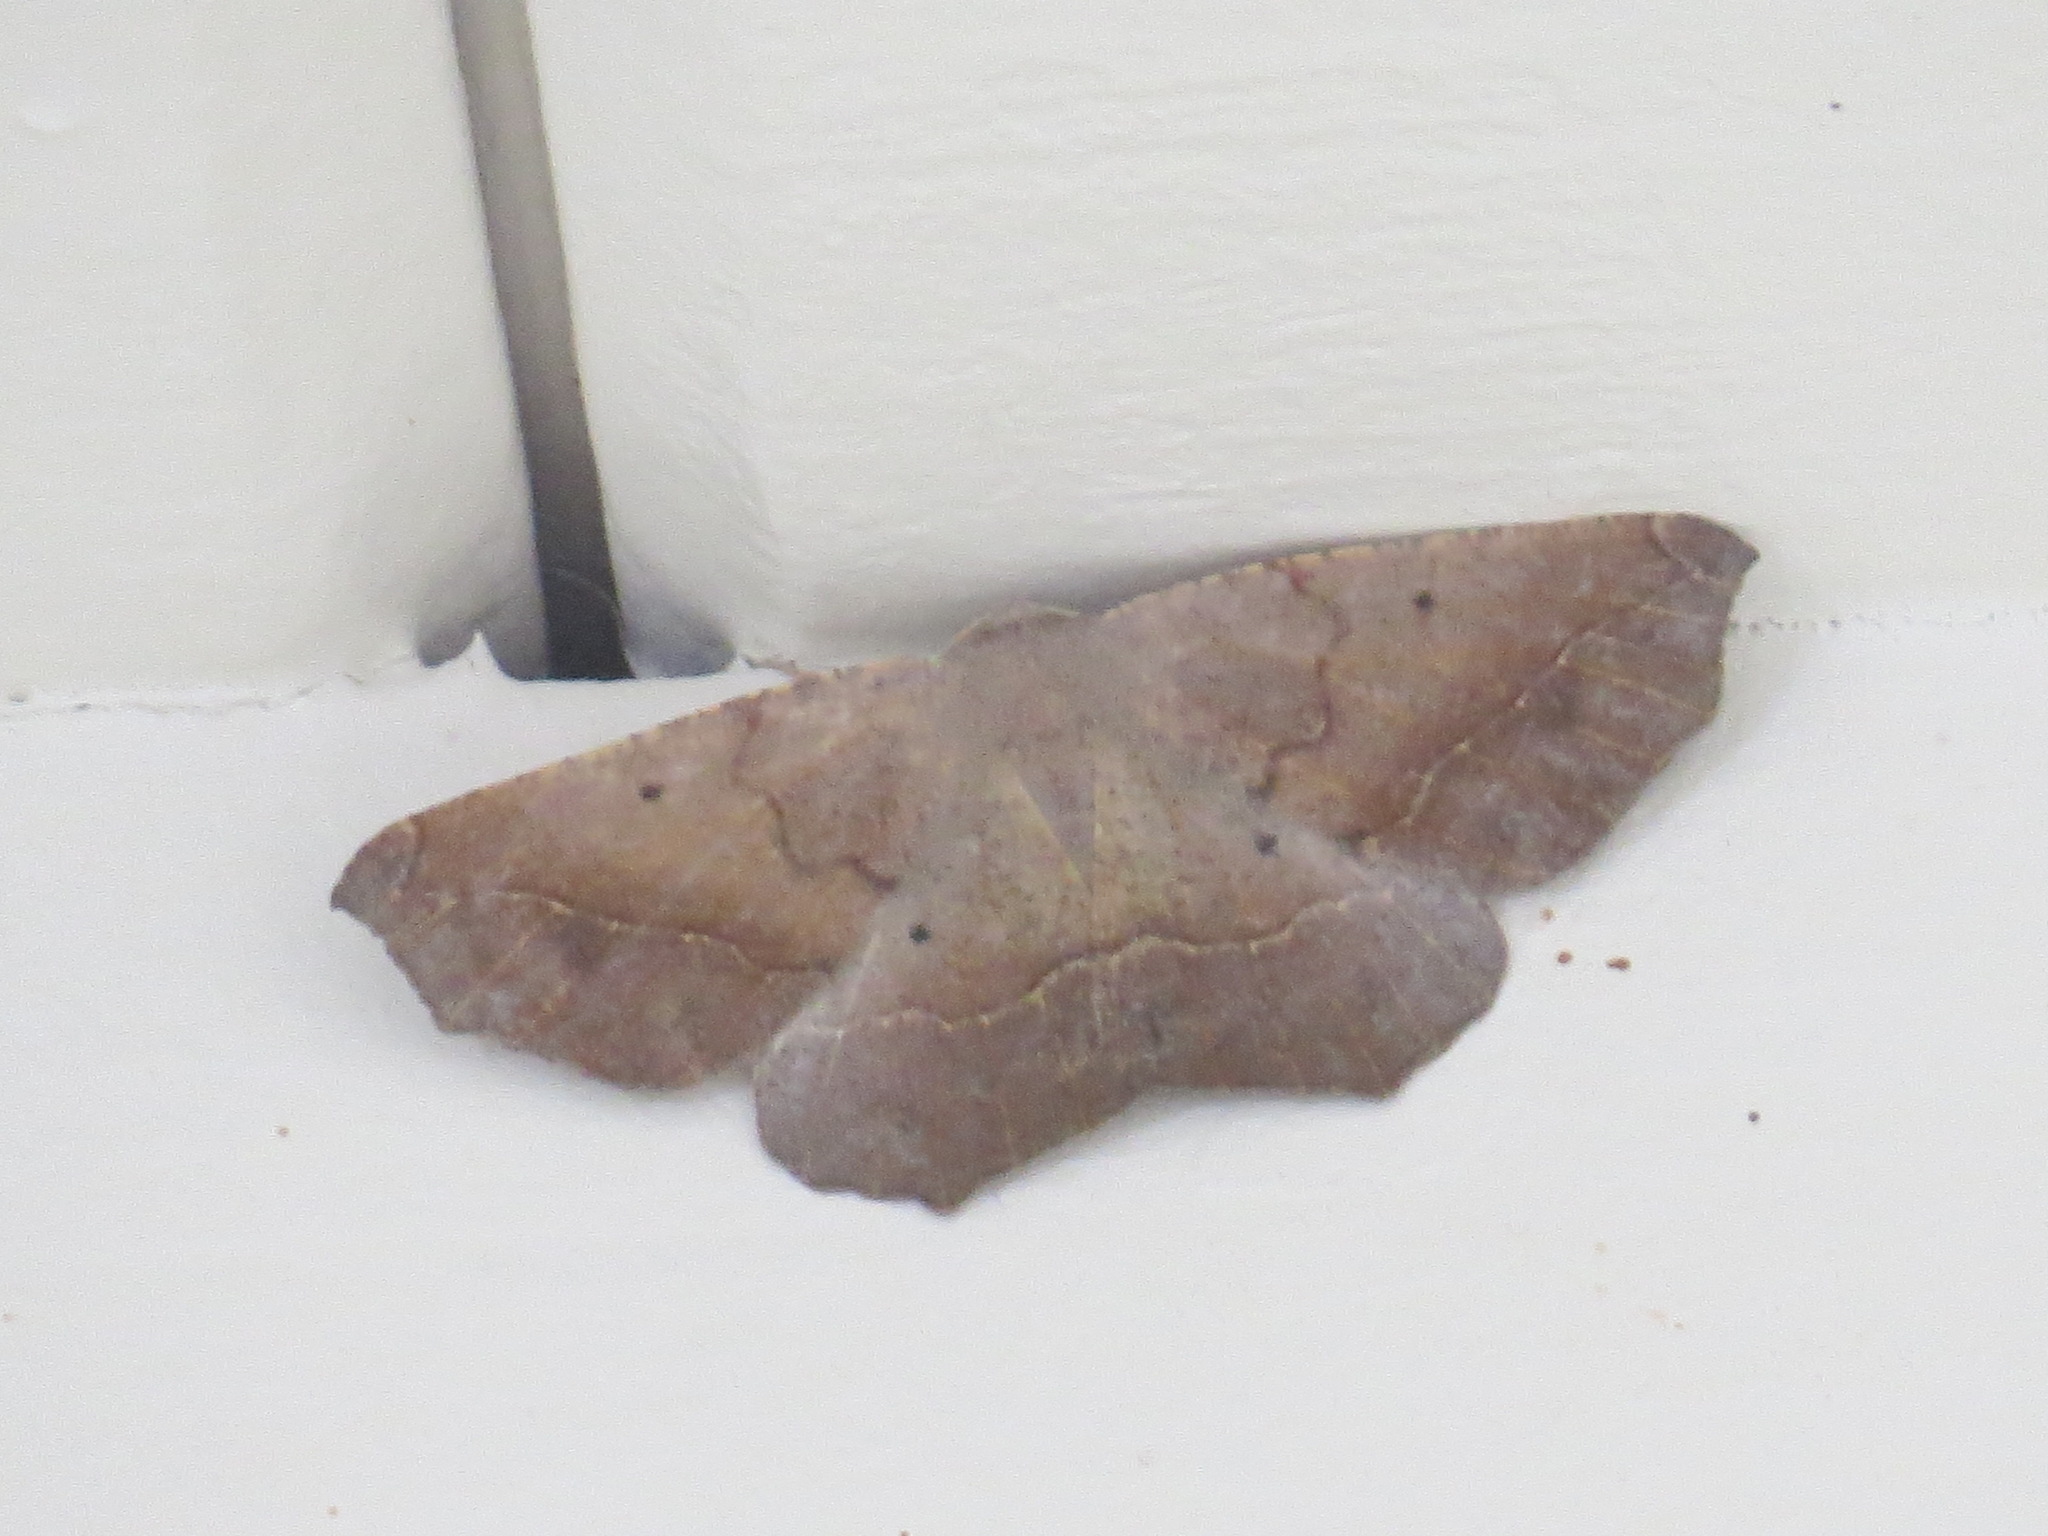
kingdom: Animalia
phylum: Arthropoda
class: Insecta
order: Lepidoptera
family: Geometridae
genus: Prochoerodes
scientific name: Prochoerodes forficaria
